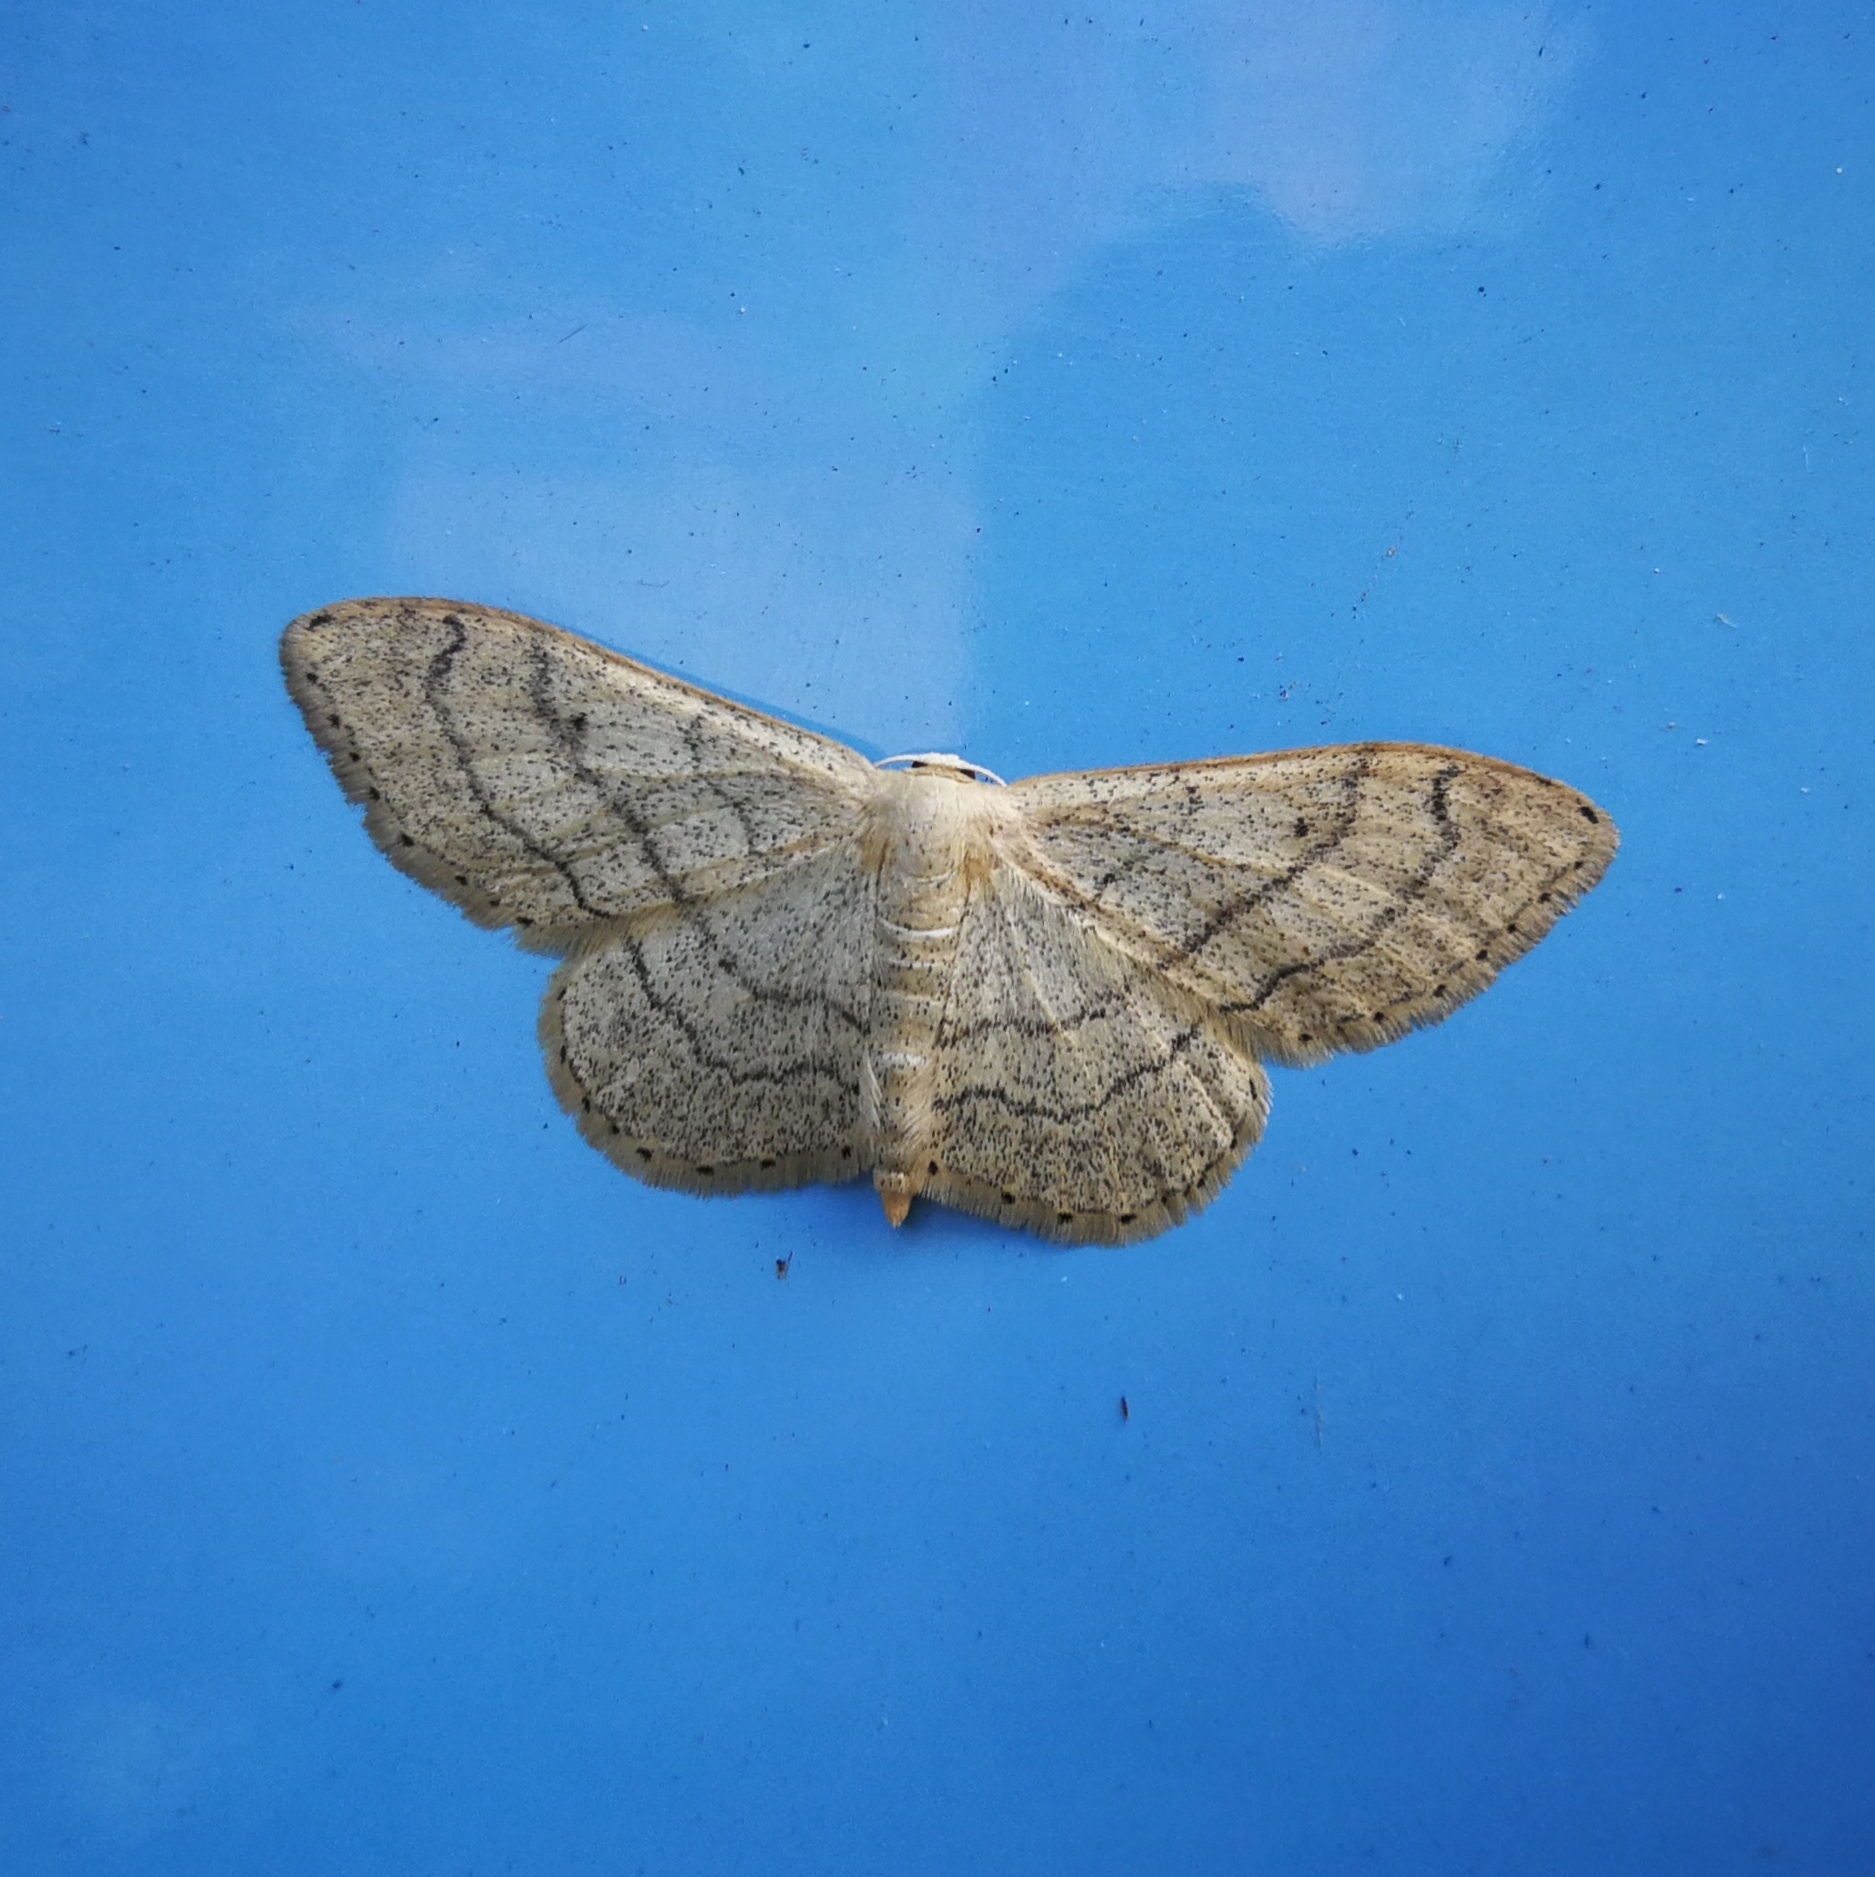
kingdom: Animalia
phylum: Arthropoda
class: Insecta
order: Lepidoptera
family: Geometridae
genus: Idaea
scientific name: Idaea aversata
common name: Riband wave
